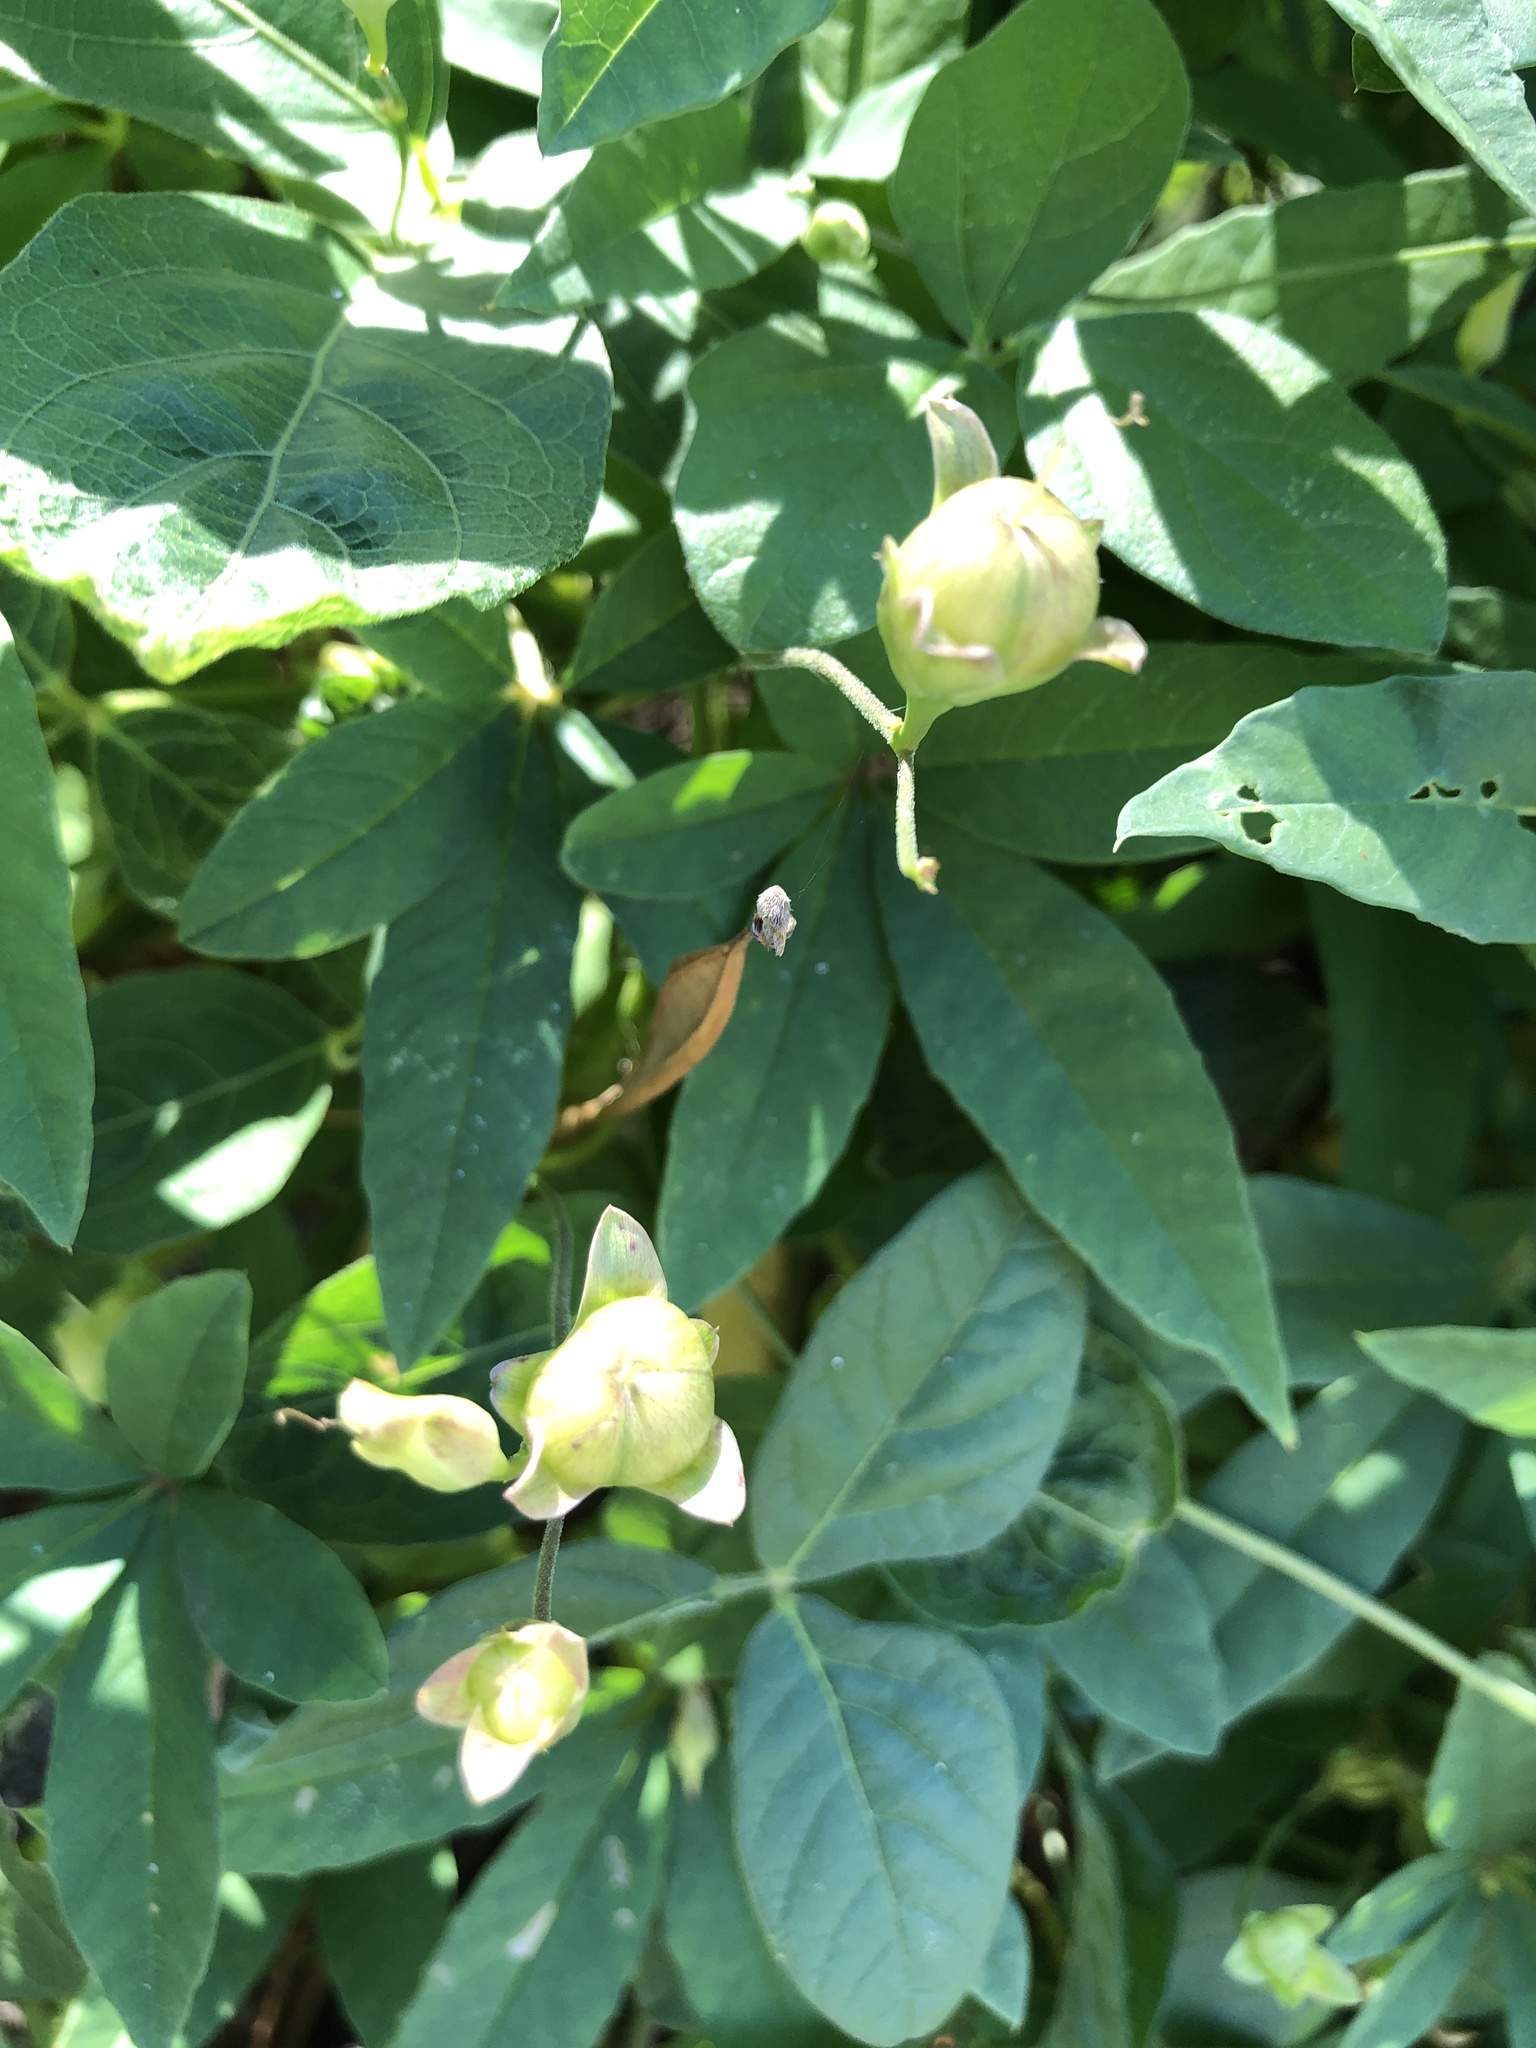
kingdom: Plantae
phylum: Tracheophyta
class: Magnoliopsida
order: Solanales
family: Convolvulaceae
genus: Distimake
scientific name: Distimake quinquefolius
